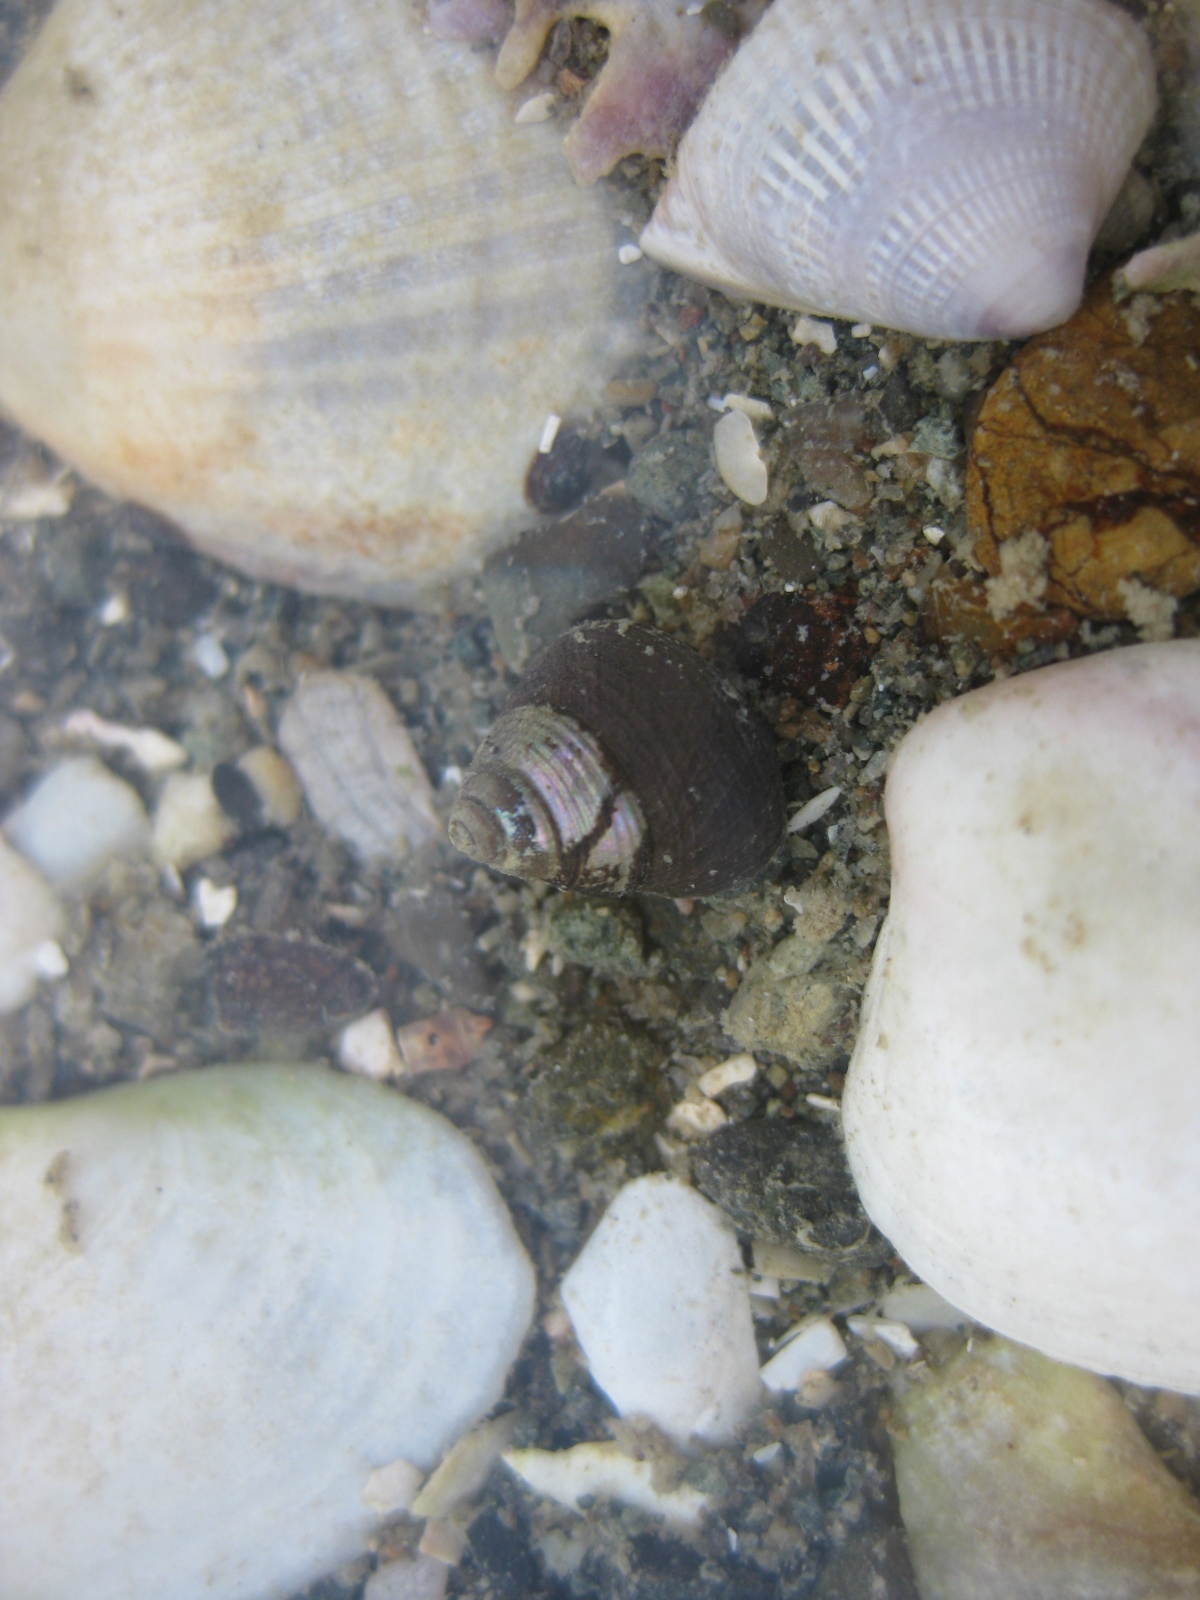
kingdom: Animalia
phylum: Mollusca
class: Gastropoda
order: Trochida
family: Trochidae
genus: Micrelenchus
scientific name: Micrelenchus huttonii
